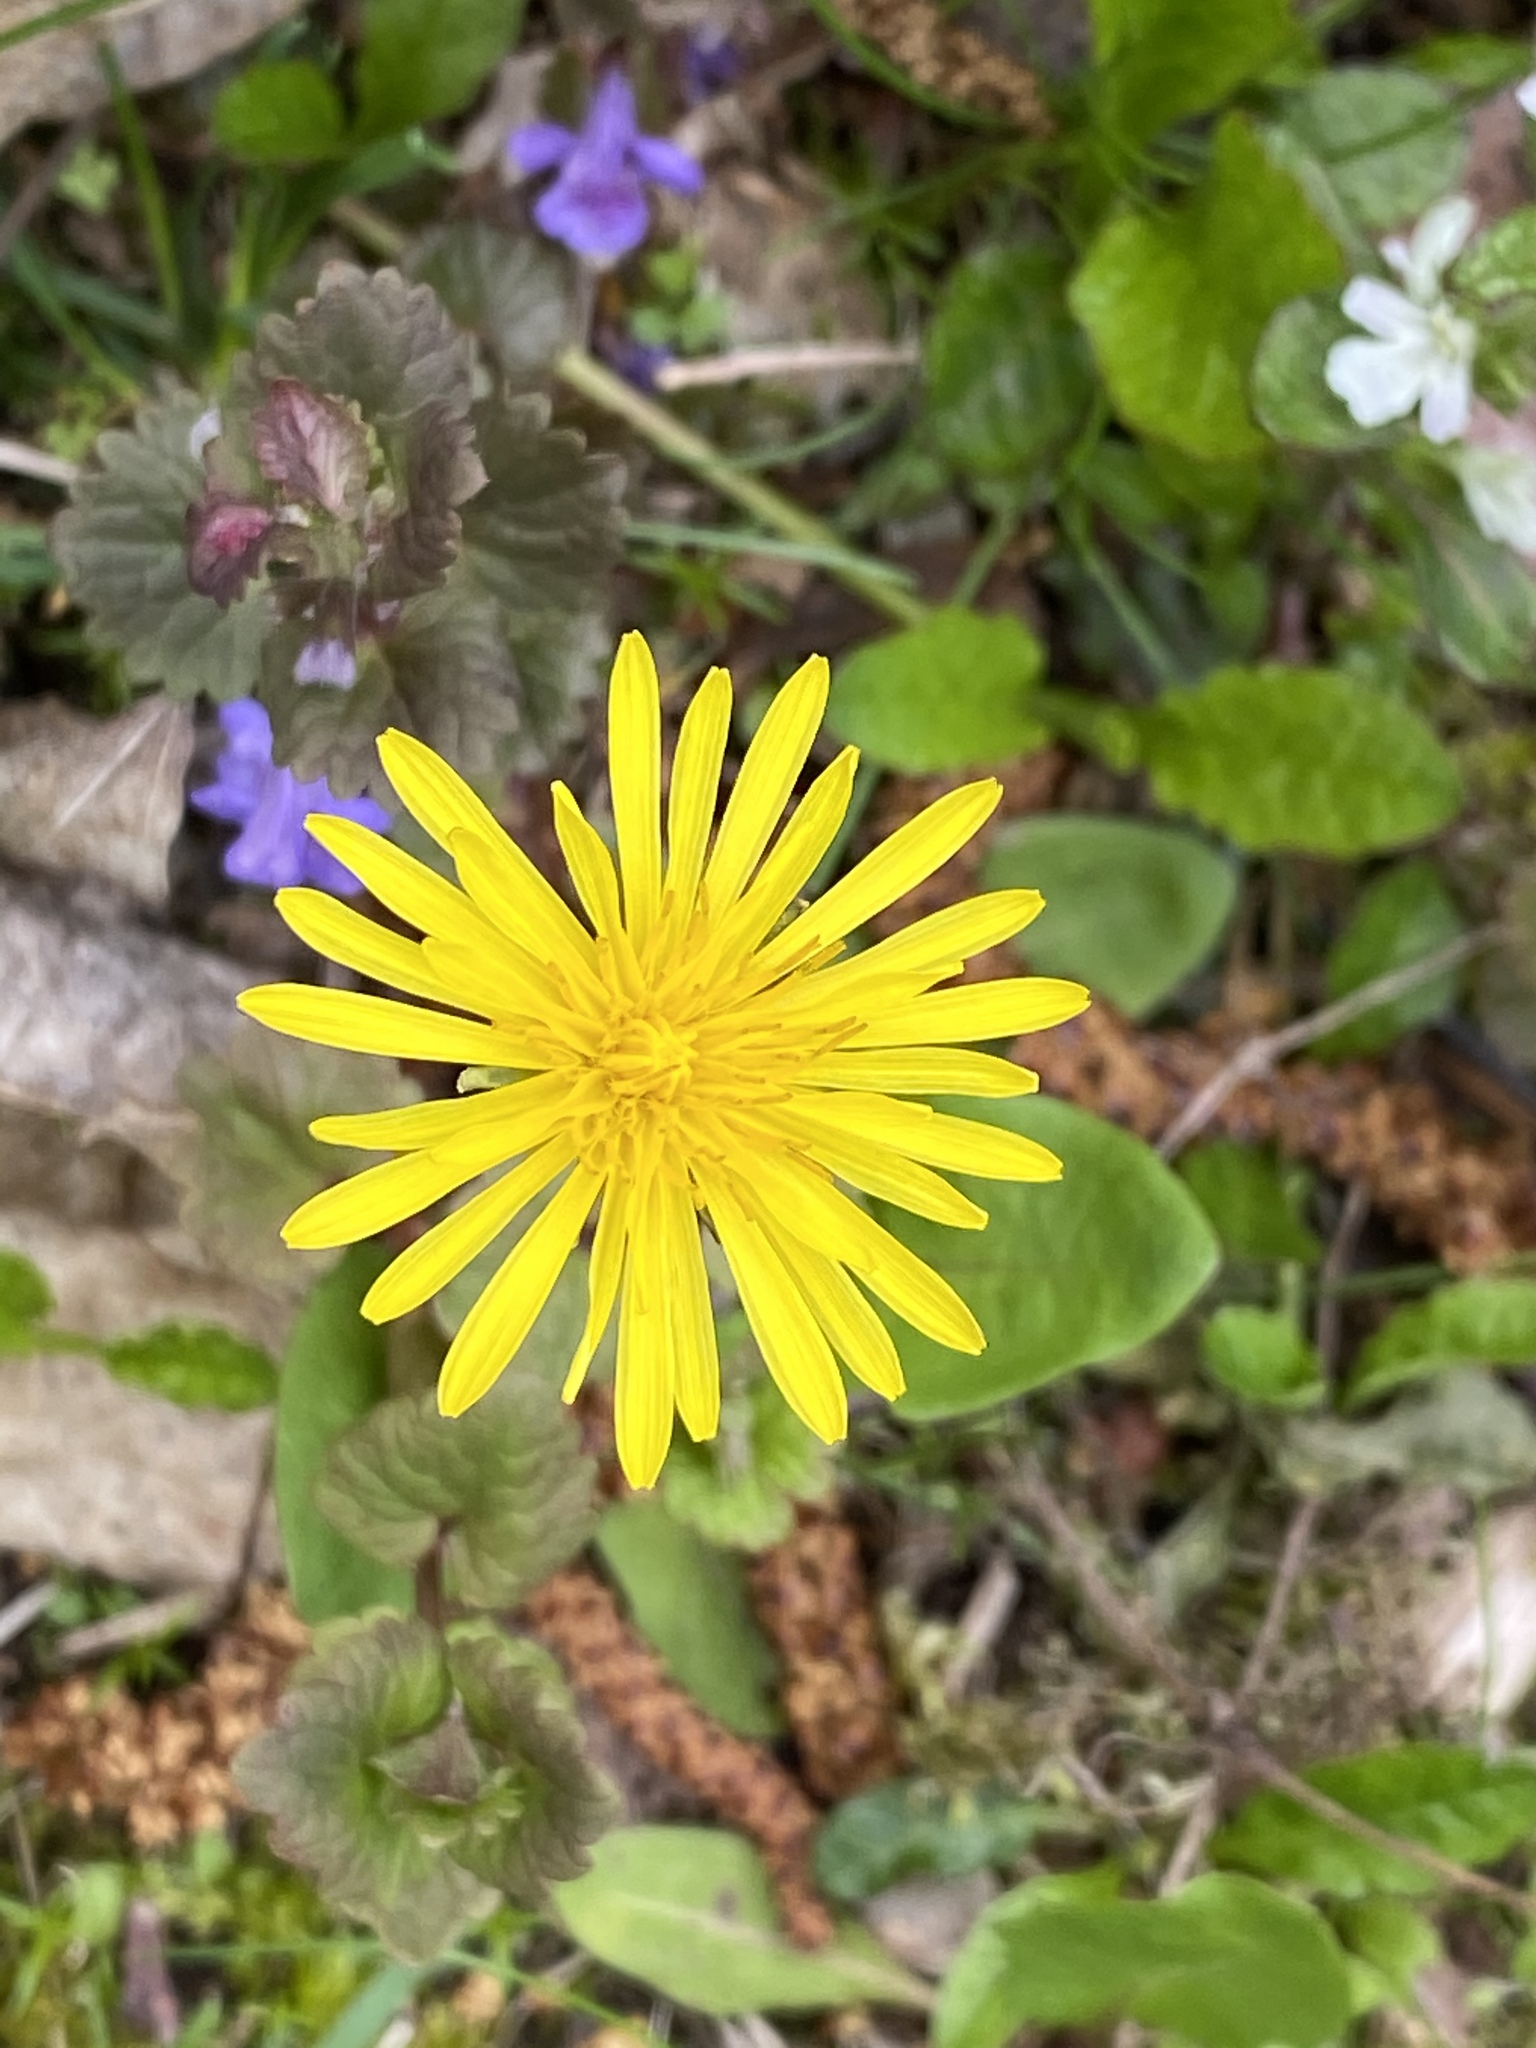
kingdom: Plantae
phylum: Tracheophyta
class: Magnoliopsida
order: Asterales
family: Asteraceae
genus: Taraxacum
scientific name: Taraxacum officinale
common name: Common dandelion
